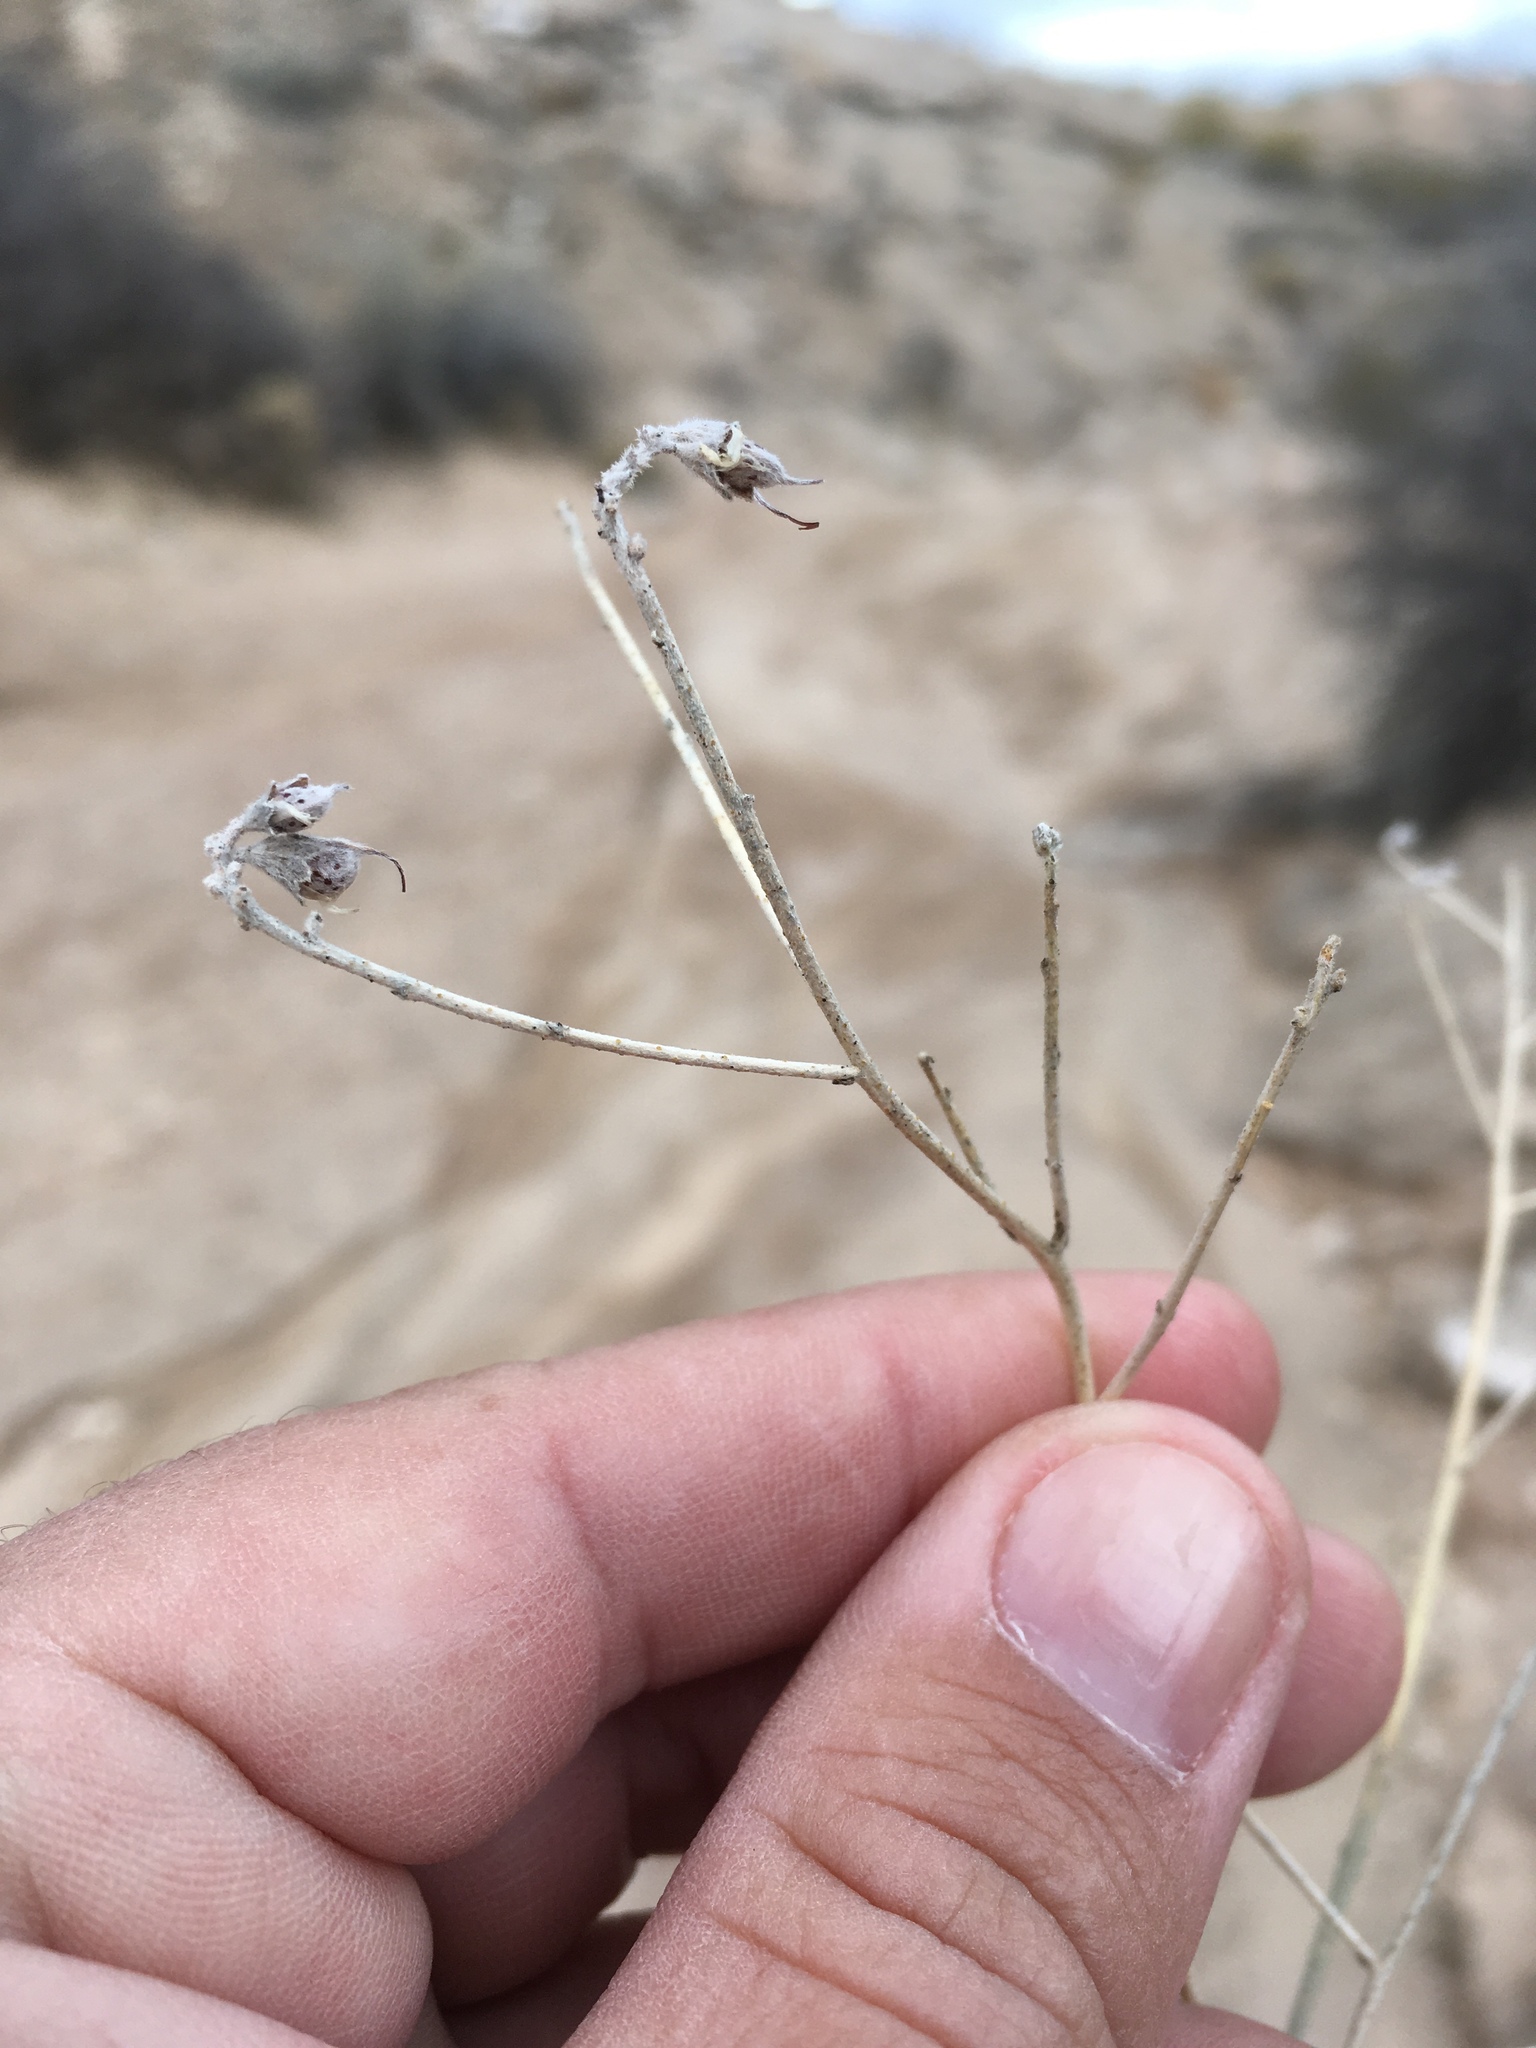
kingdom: Plantae
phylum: Tracheophyta
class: Magnoliopsida
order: Fabales
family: Fabaceae
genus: Psorothamnus
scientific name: Psorothamnus scoparius
